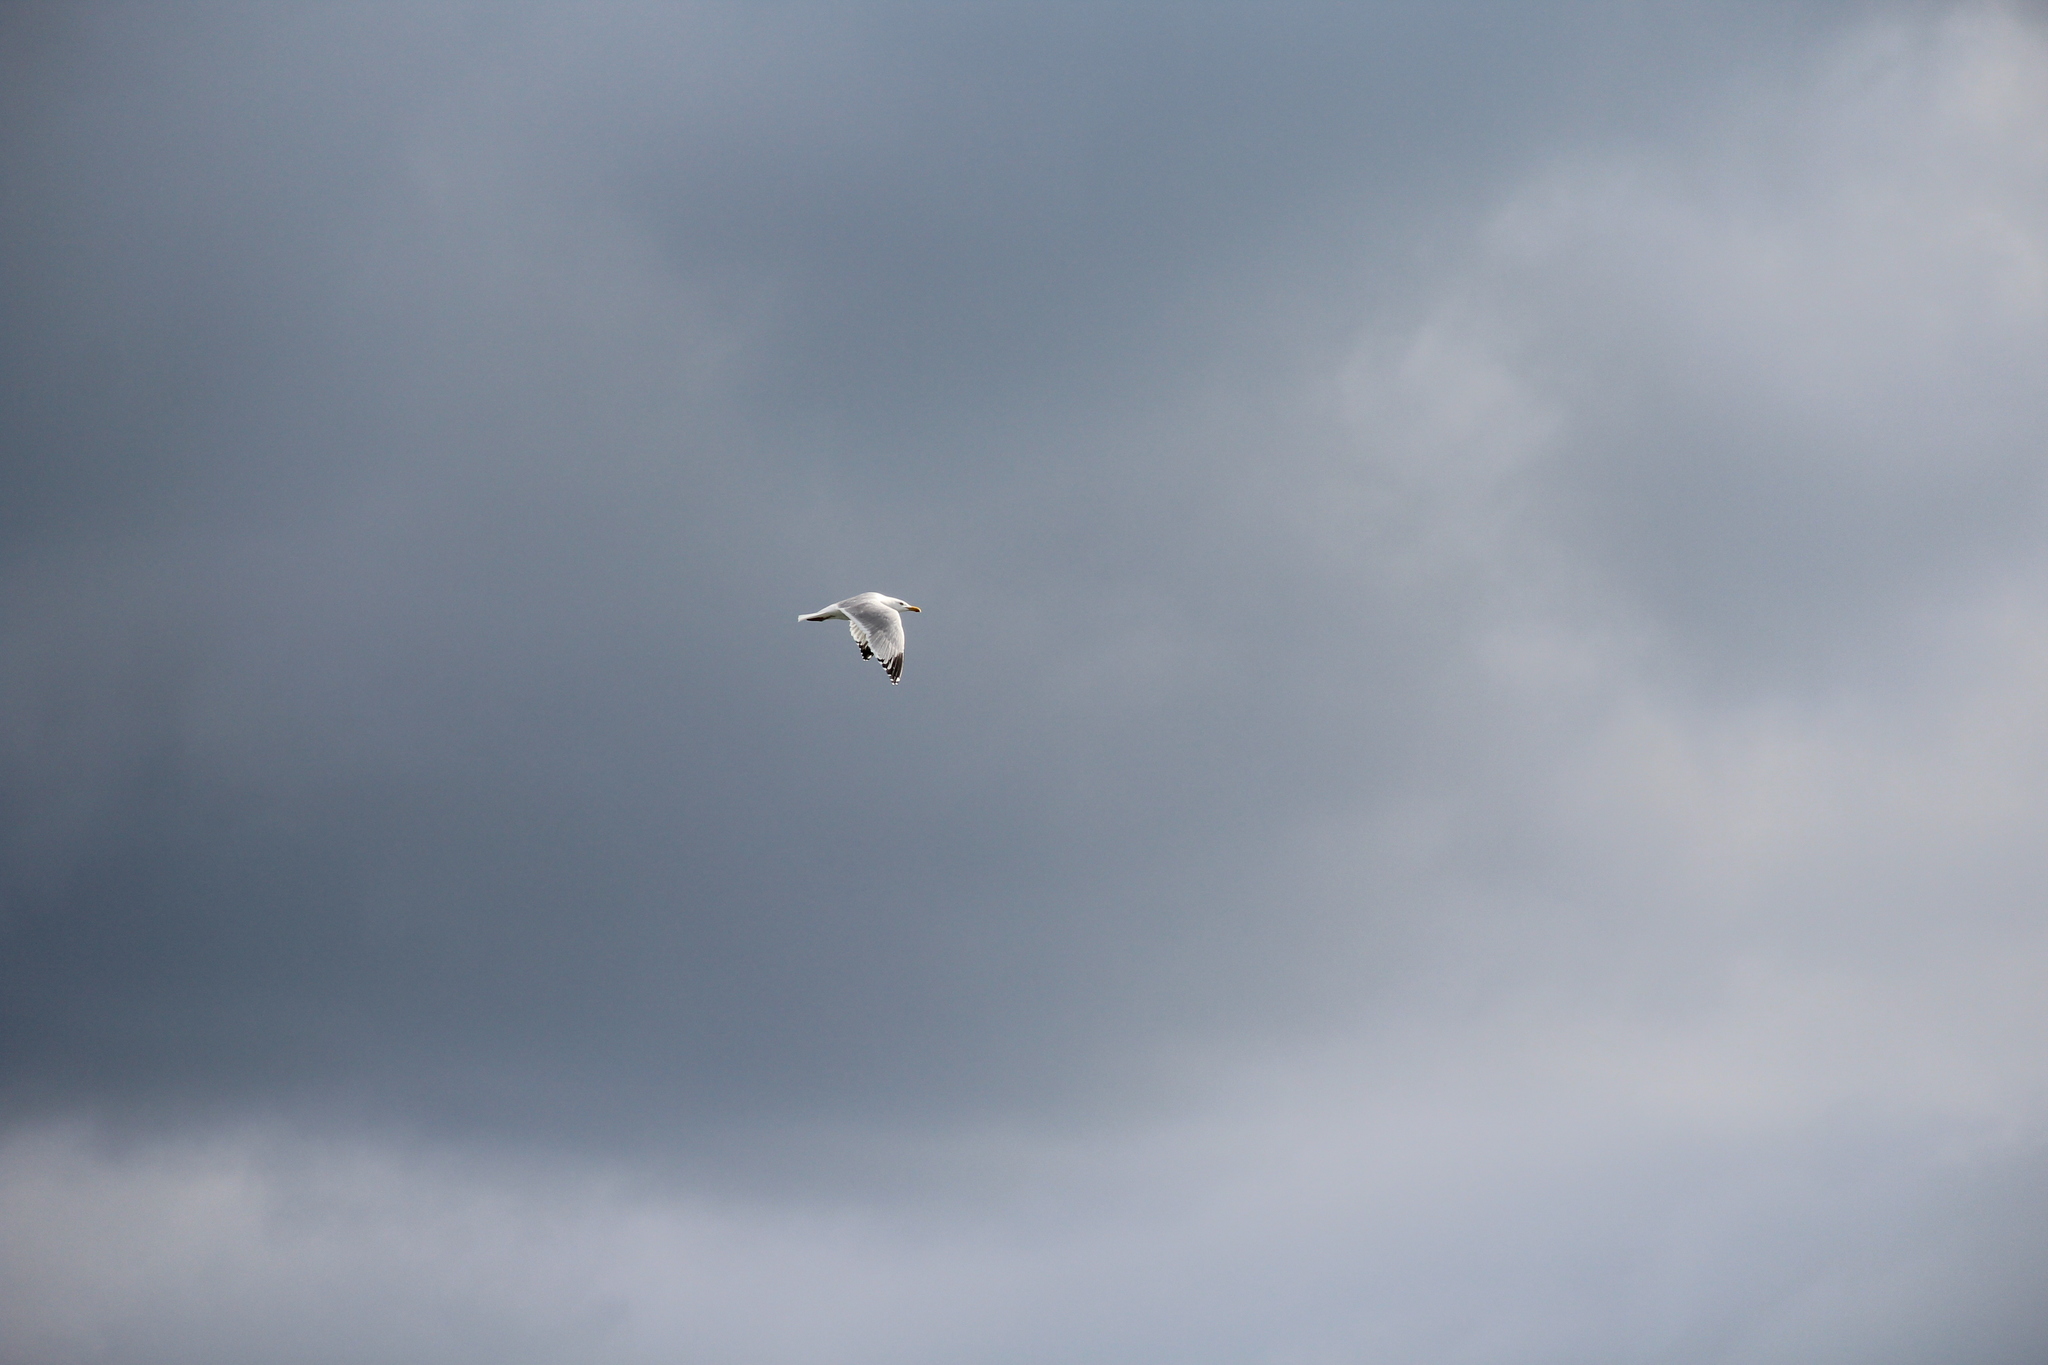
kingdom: Animalia
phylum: Chordata
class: Aves
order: Charadriiformes
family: Laridae
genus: Larus
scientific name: Larus argentatus
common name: Herring gull
